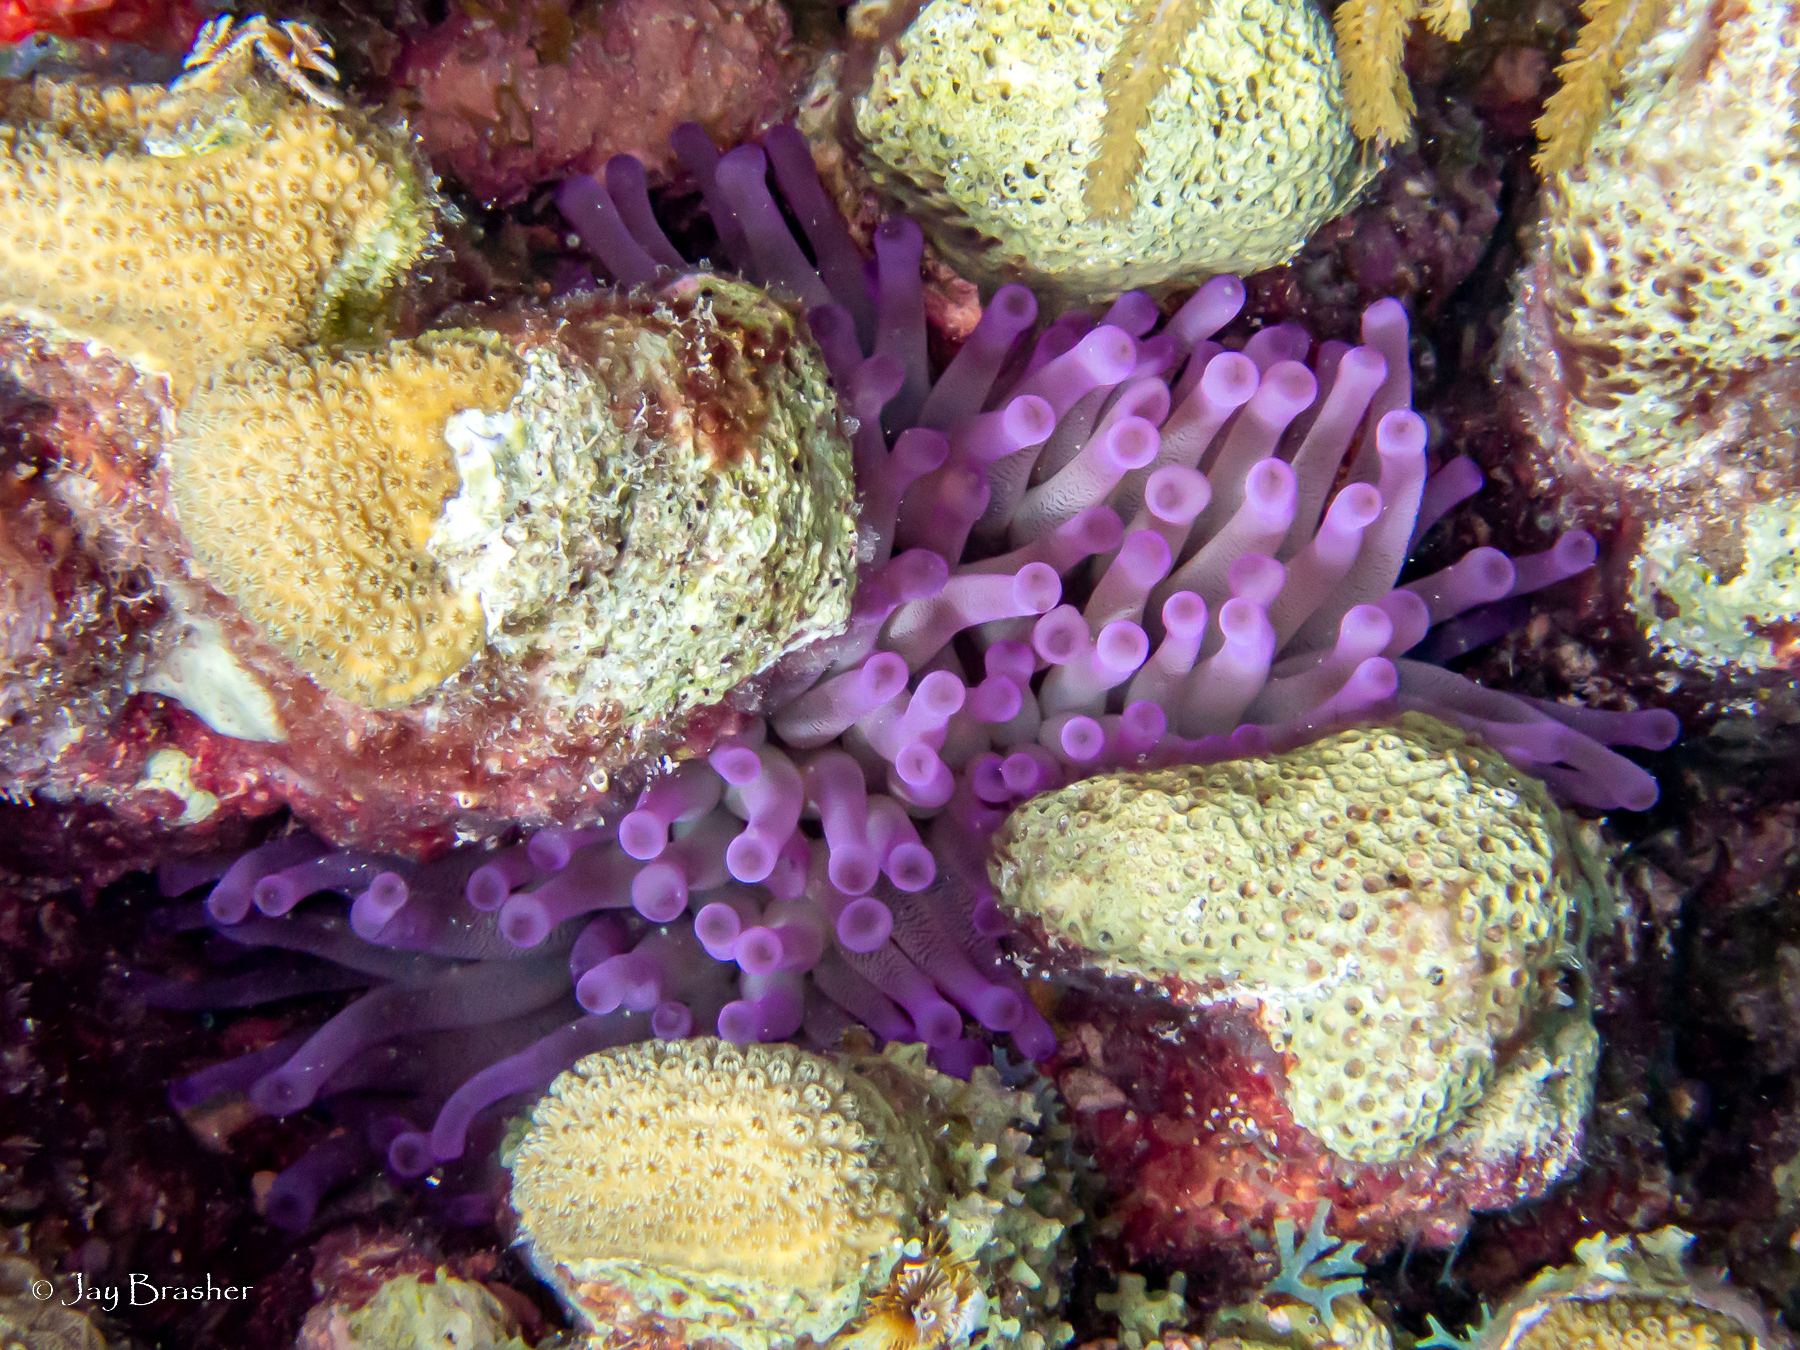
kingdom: Animalia
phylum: Cnidaria
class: Anthozoa
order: Actiniaria
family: Actiniidae
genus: Condylactis
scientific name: Condylactis gigantea
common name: Giant caribbean anemone
